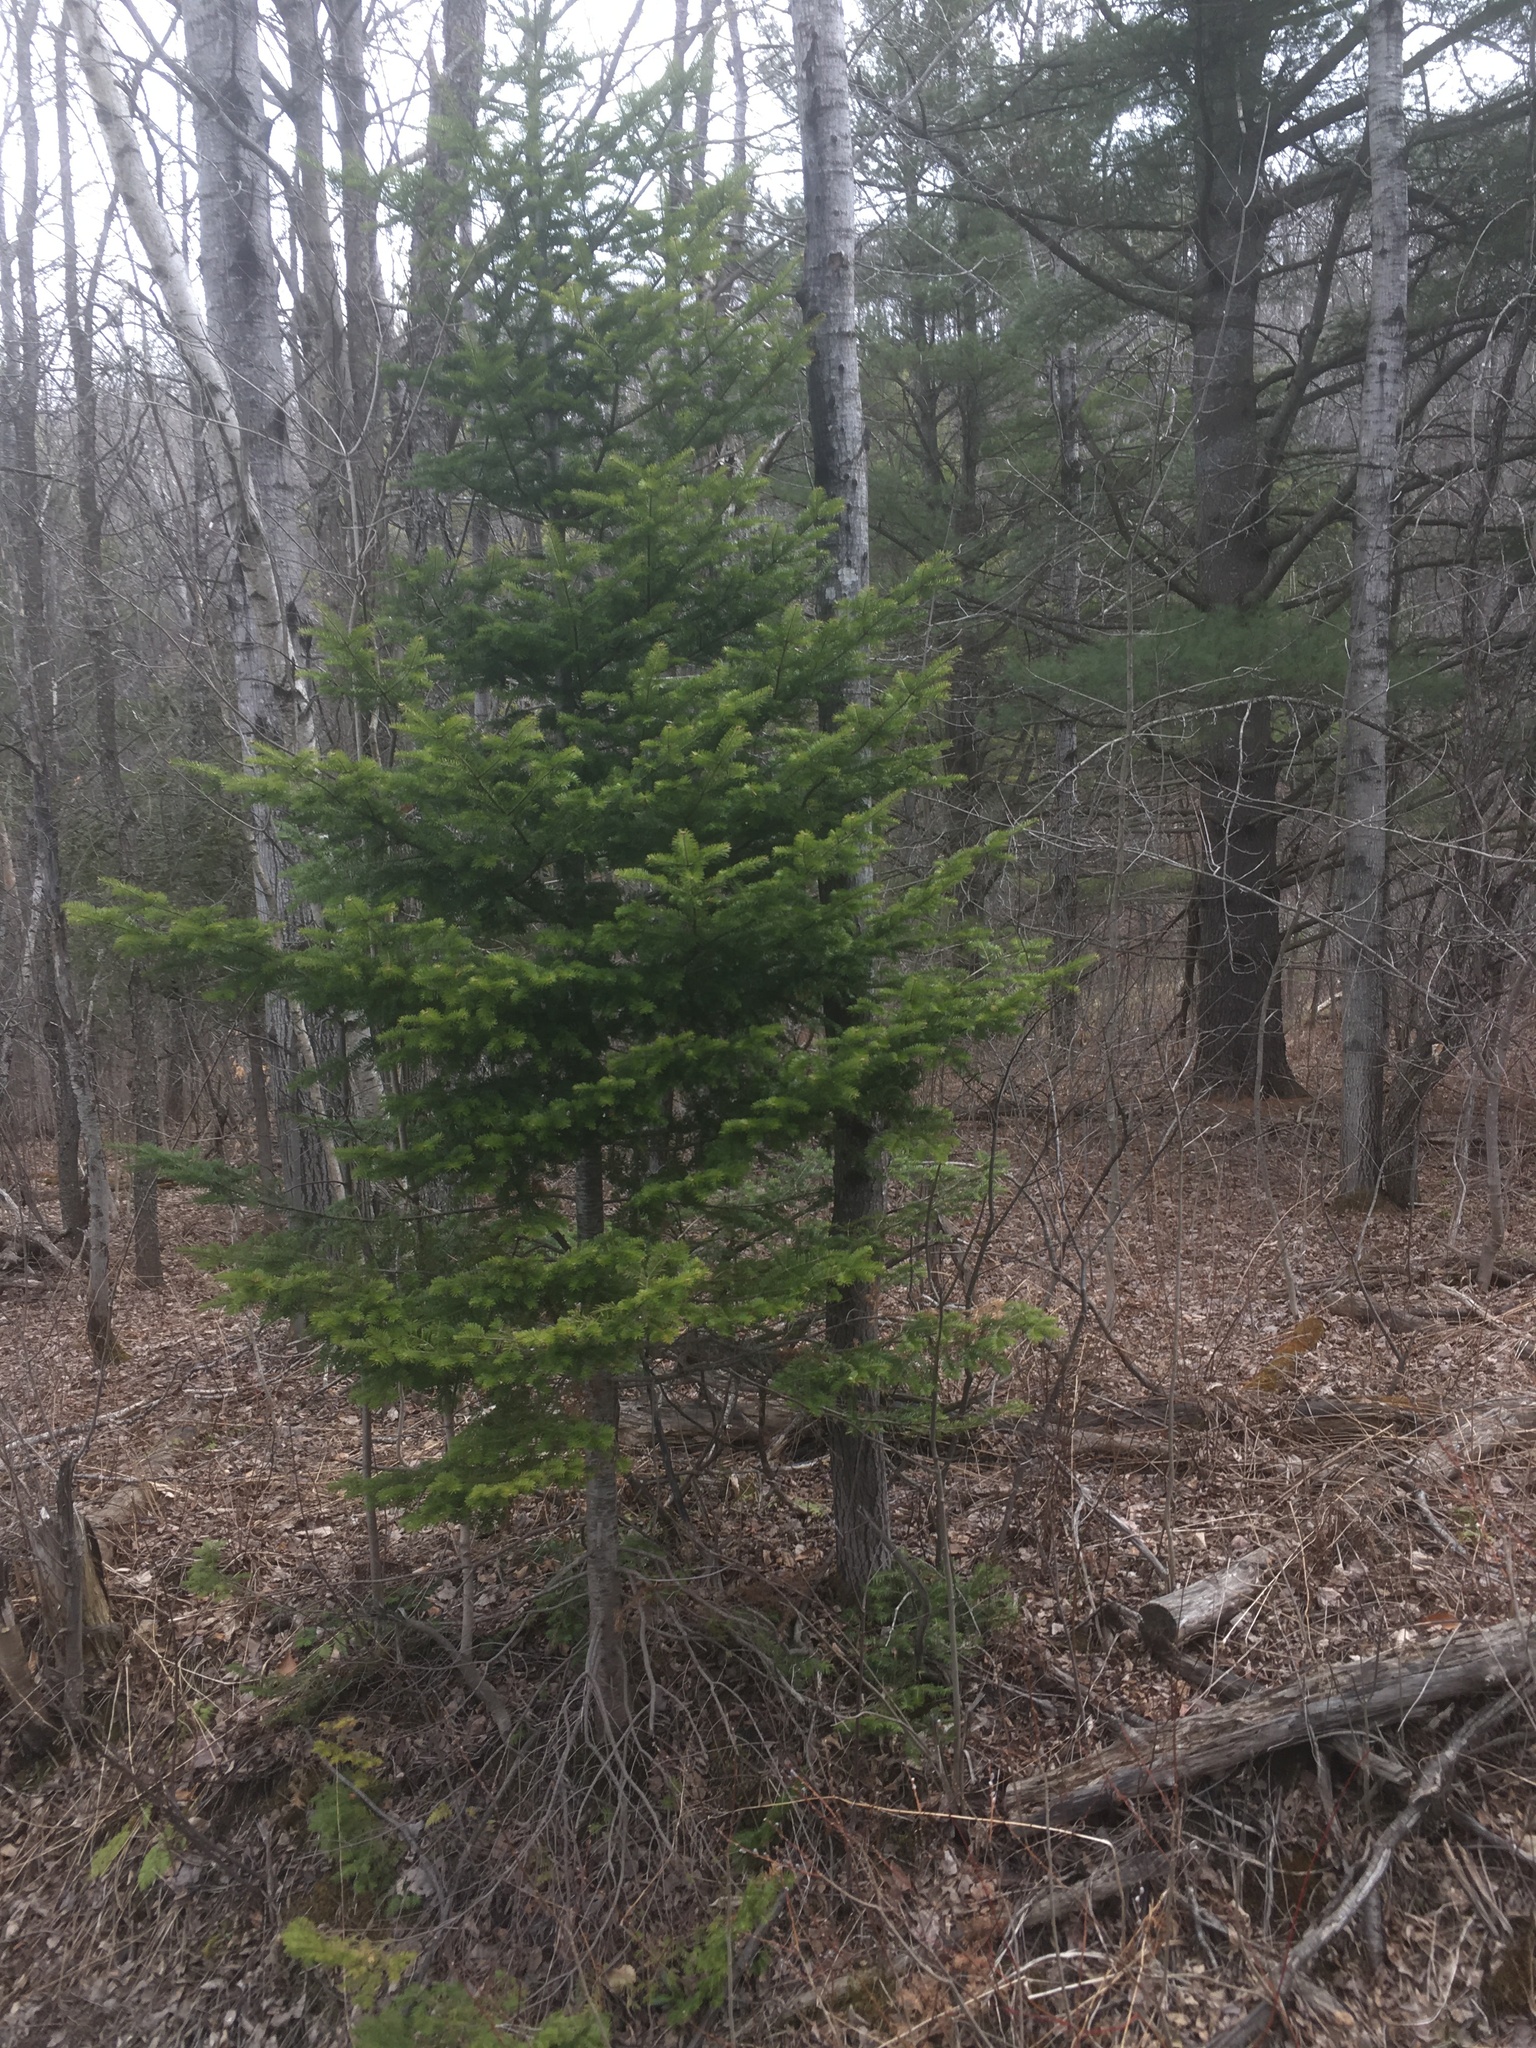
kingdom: Plantae
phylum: Tracheophyta
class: Pinopsida
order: Pinales
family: Pinaceae
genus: Abies
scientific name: Abies balsamea
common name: Balsam fir
